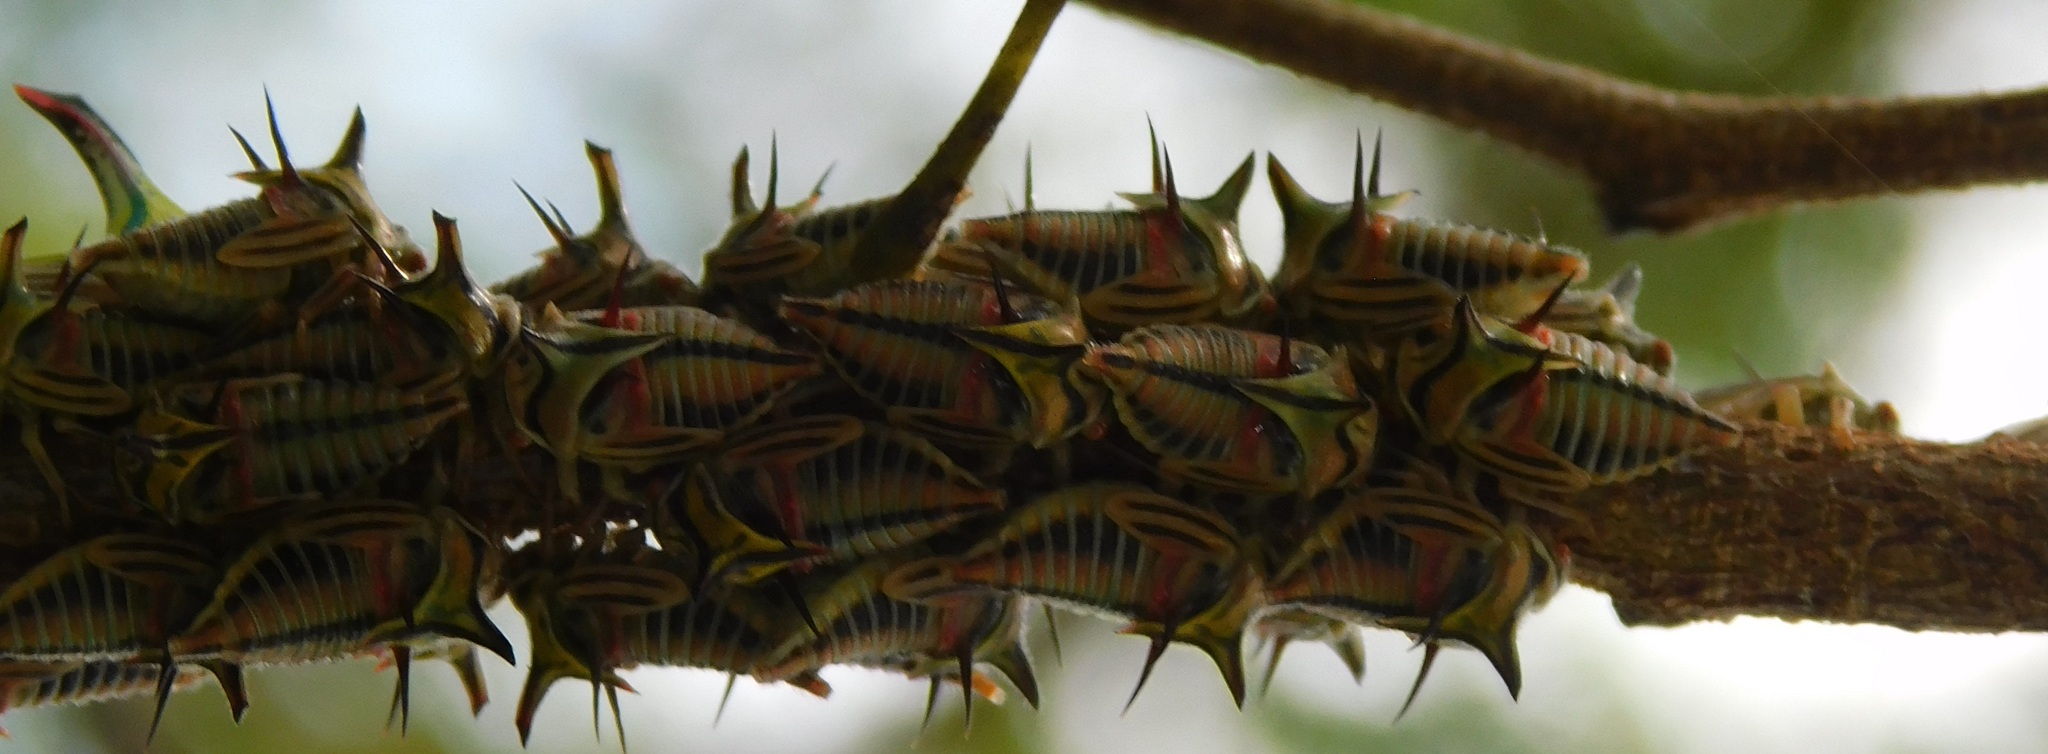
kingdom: Animalia
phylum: Arthropoda
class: Insecta
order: Hemiptera
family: Membracidae
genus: Umbonia
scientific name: Umbonia crassicornis
